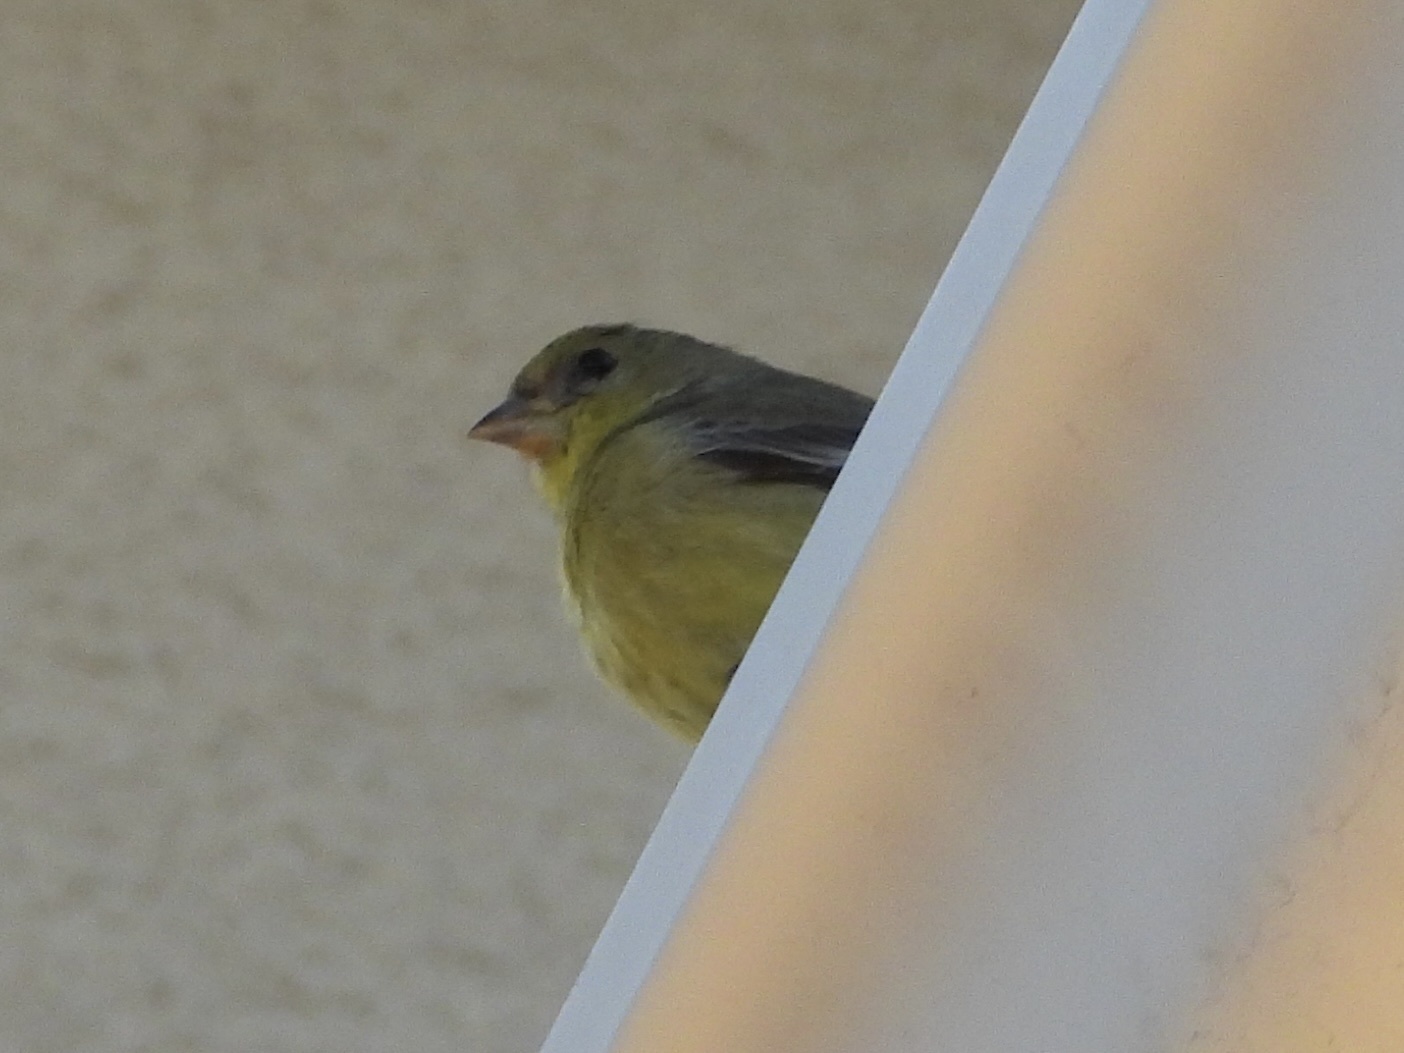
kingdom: Animalia
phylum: Chordata
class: Aves
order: Passeriformes
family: Fringillidae
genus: Spinus
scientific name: Spinus psaltria
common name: Lesser goldfinch
